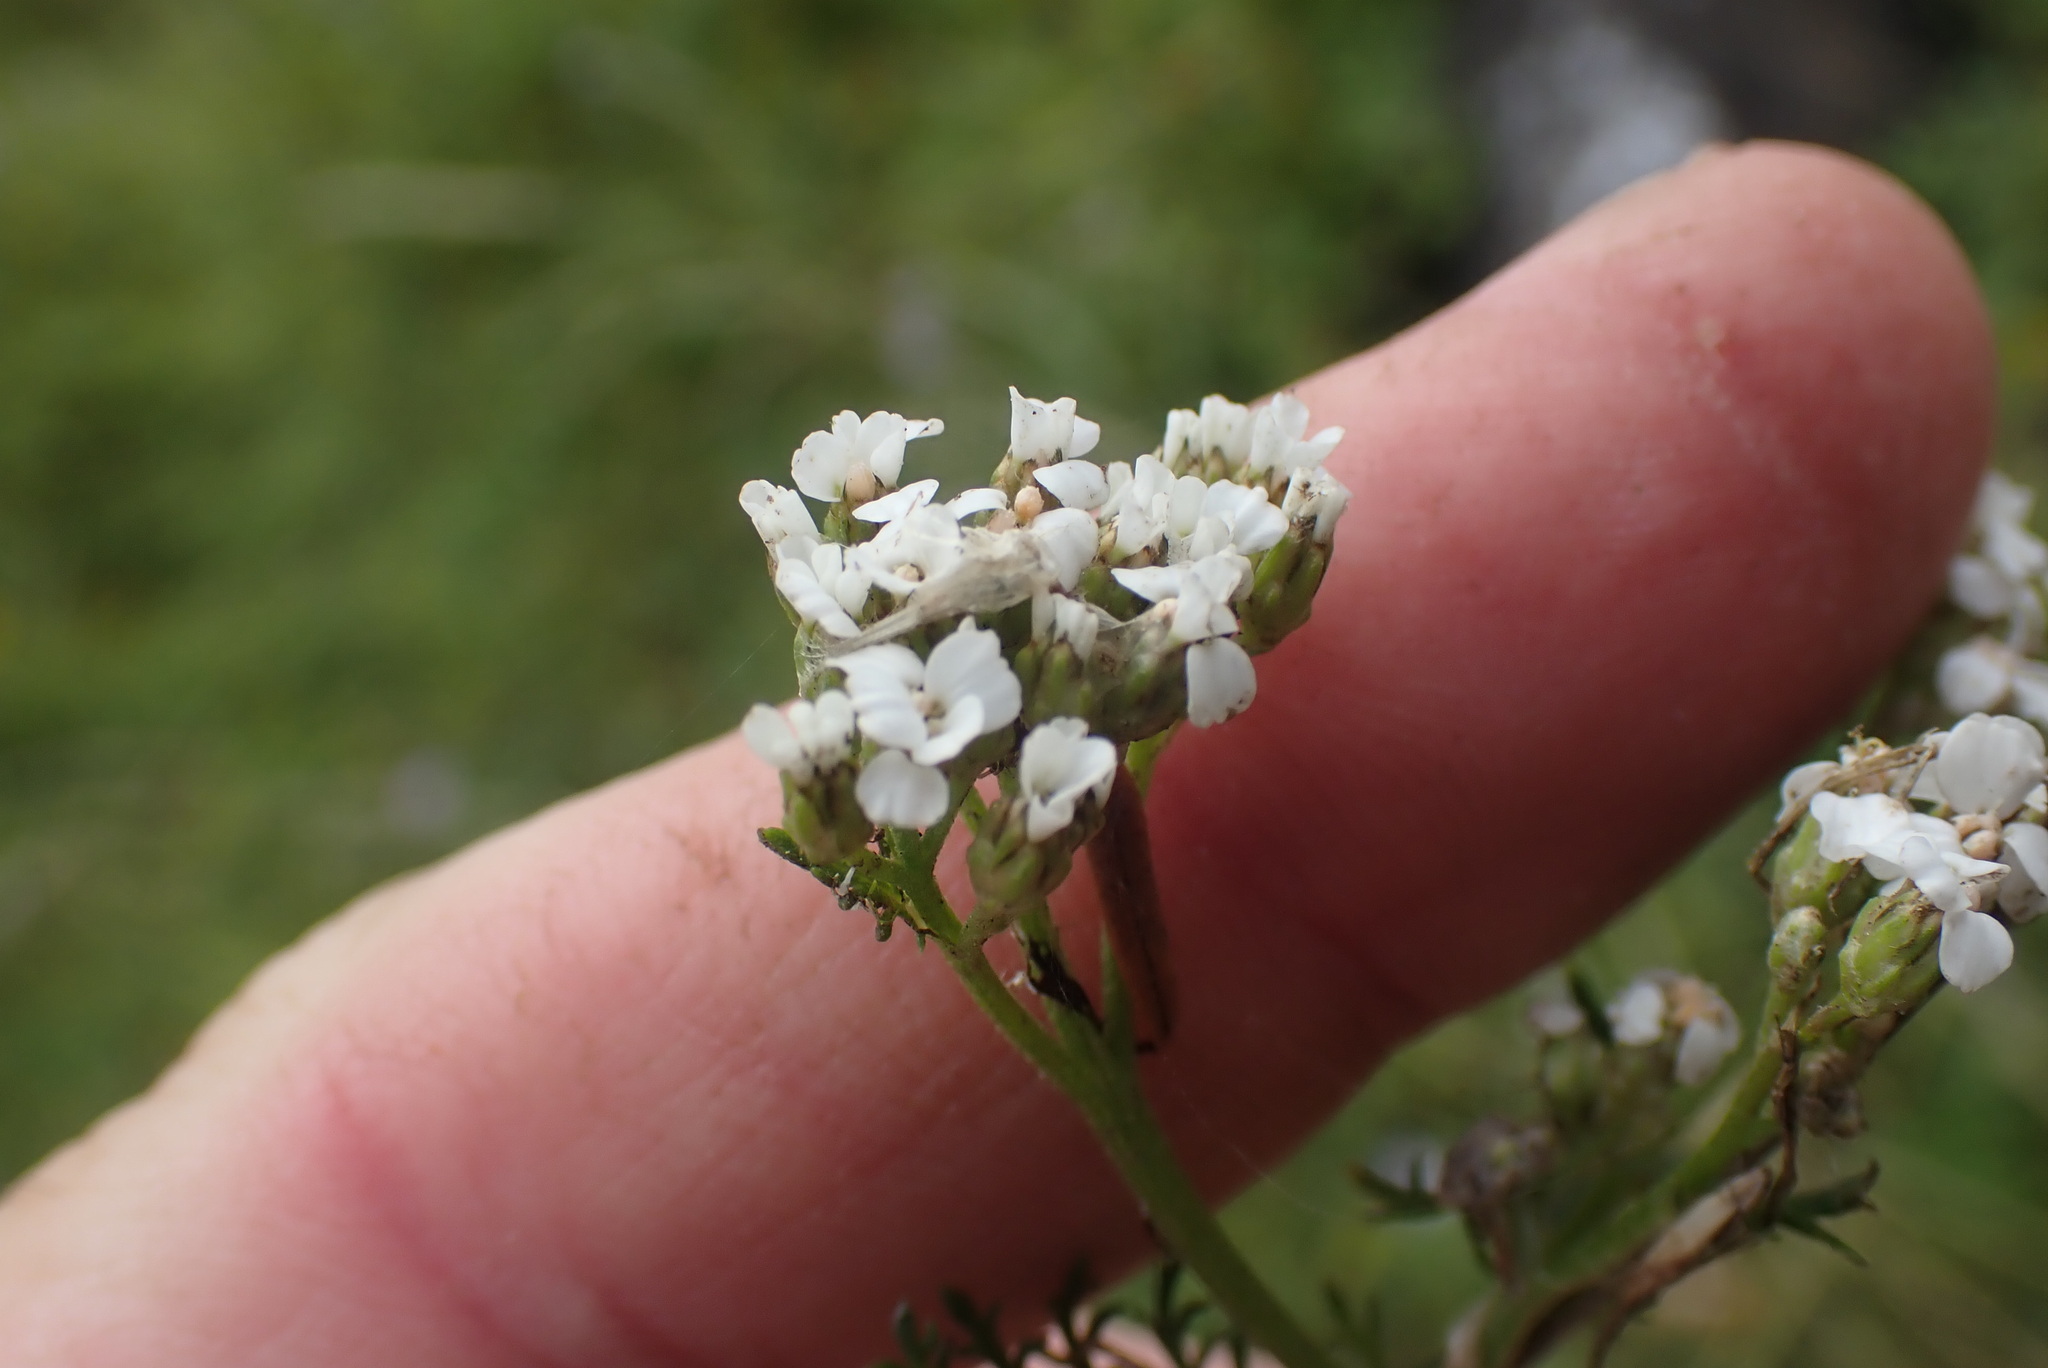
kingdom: Plantae
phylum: Tracheophyta
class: Magnoliopsida
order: Asterales
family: Asteraceae
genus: Achillea
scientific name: Achillea millefolium
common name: Yarrow
